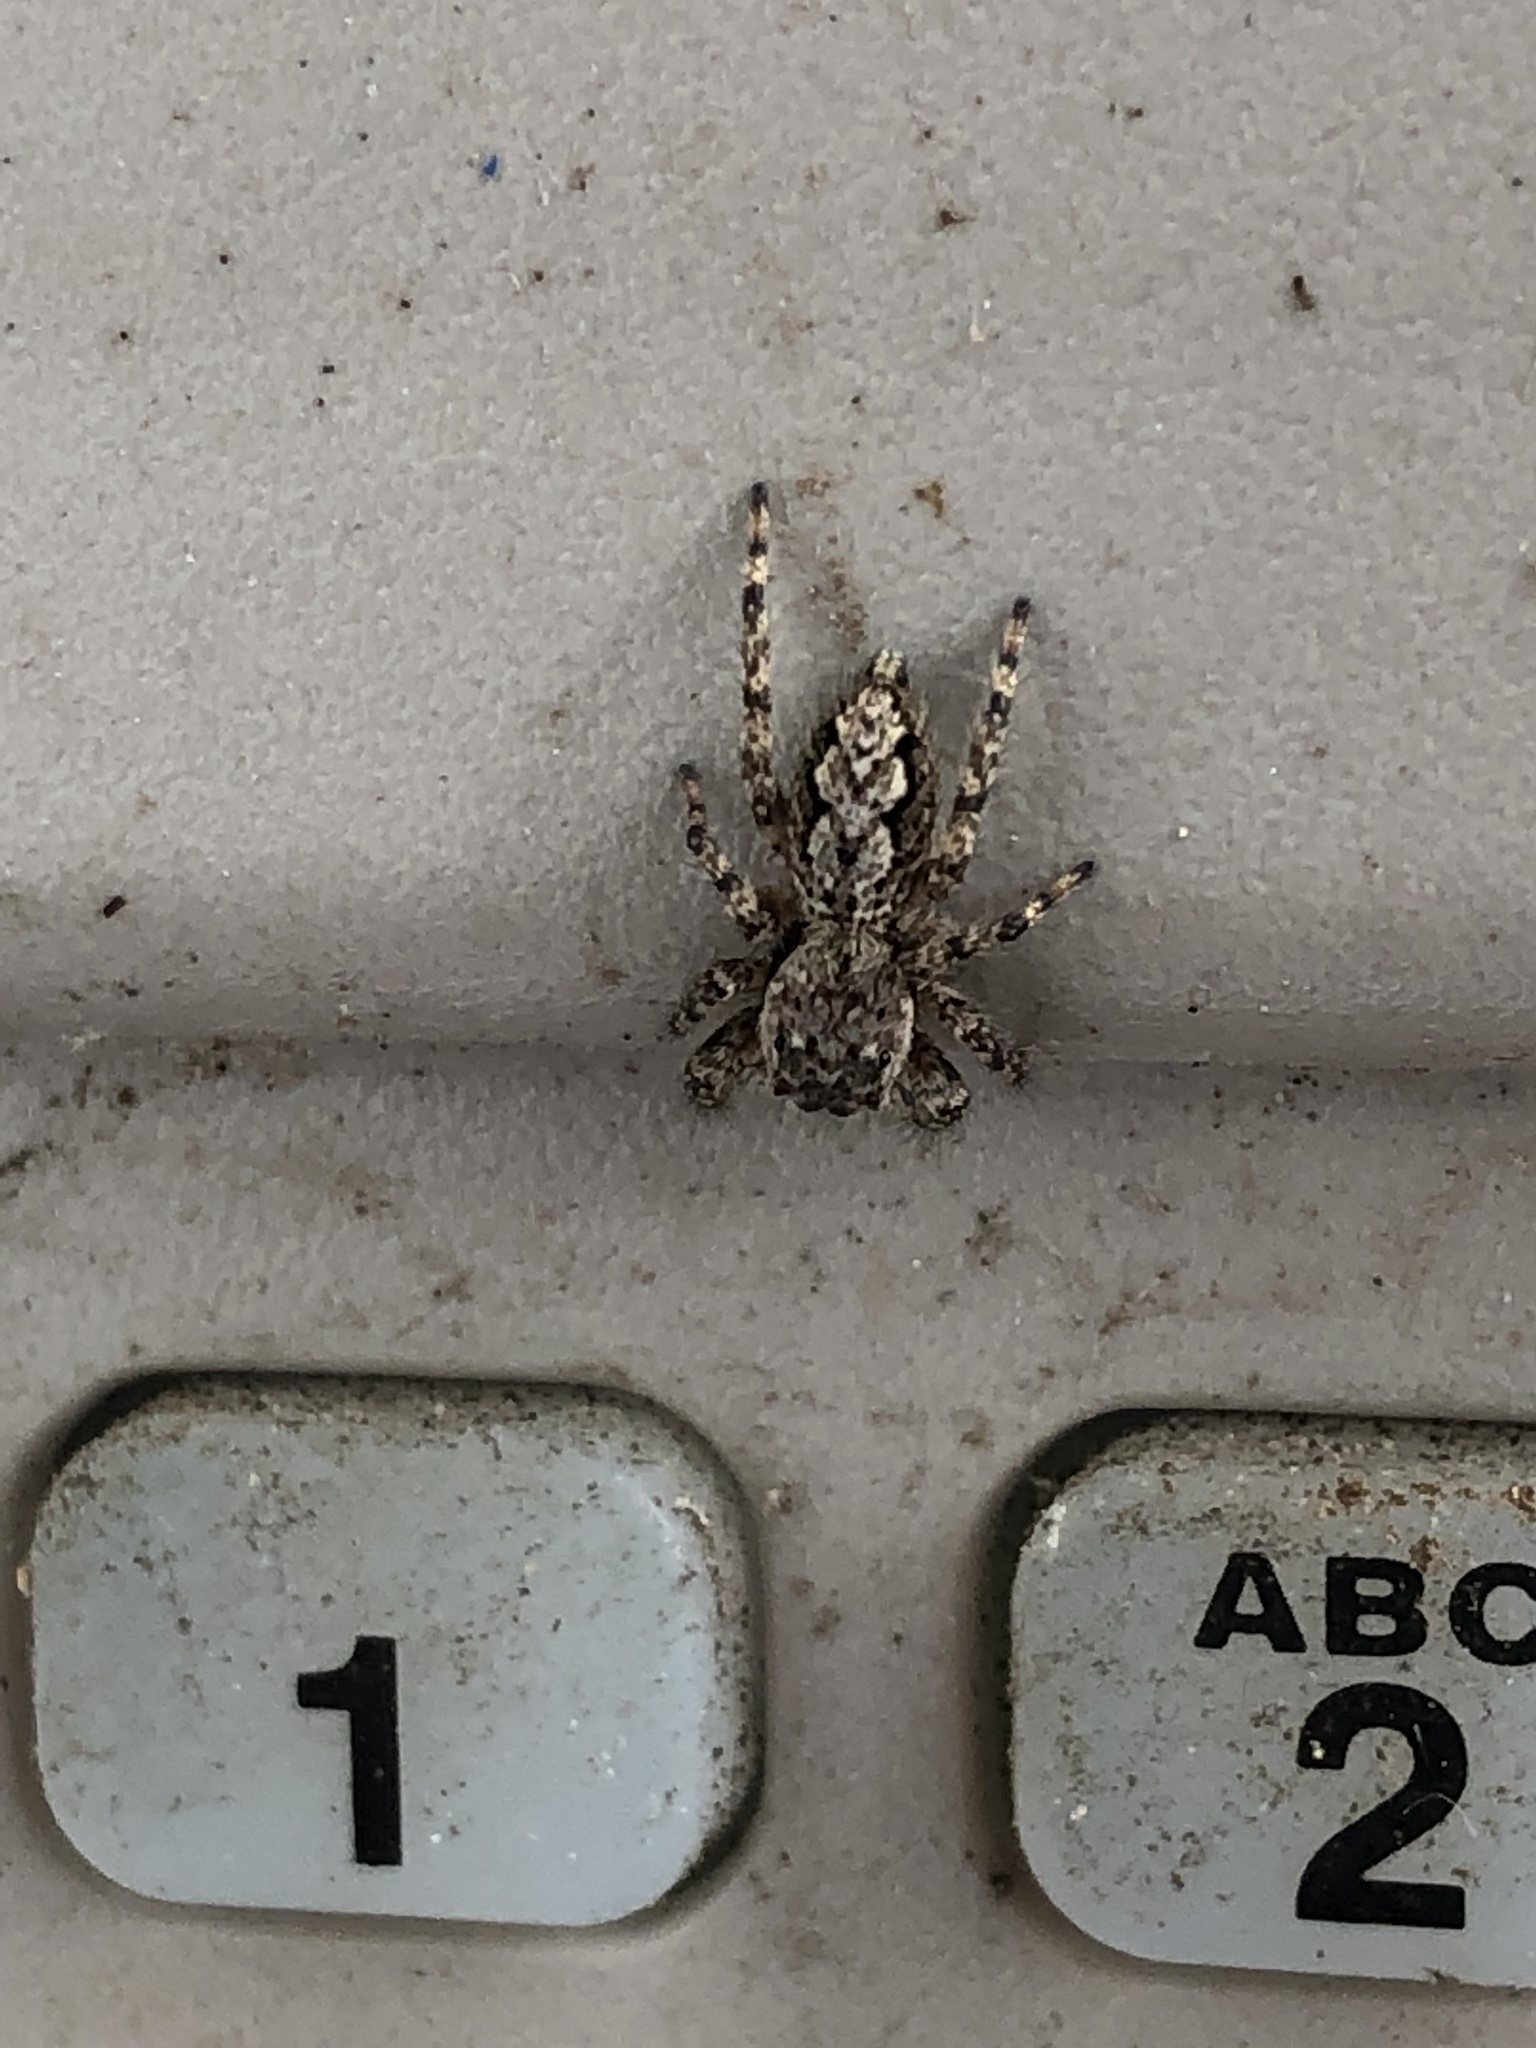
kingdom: Animalia
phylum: Arthropoda
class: Arachnida
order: Araneae
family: Salticidae
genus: Platycryptus
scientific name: Platycryptus undatus
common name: Tan jumping spider
